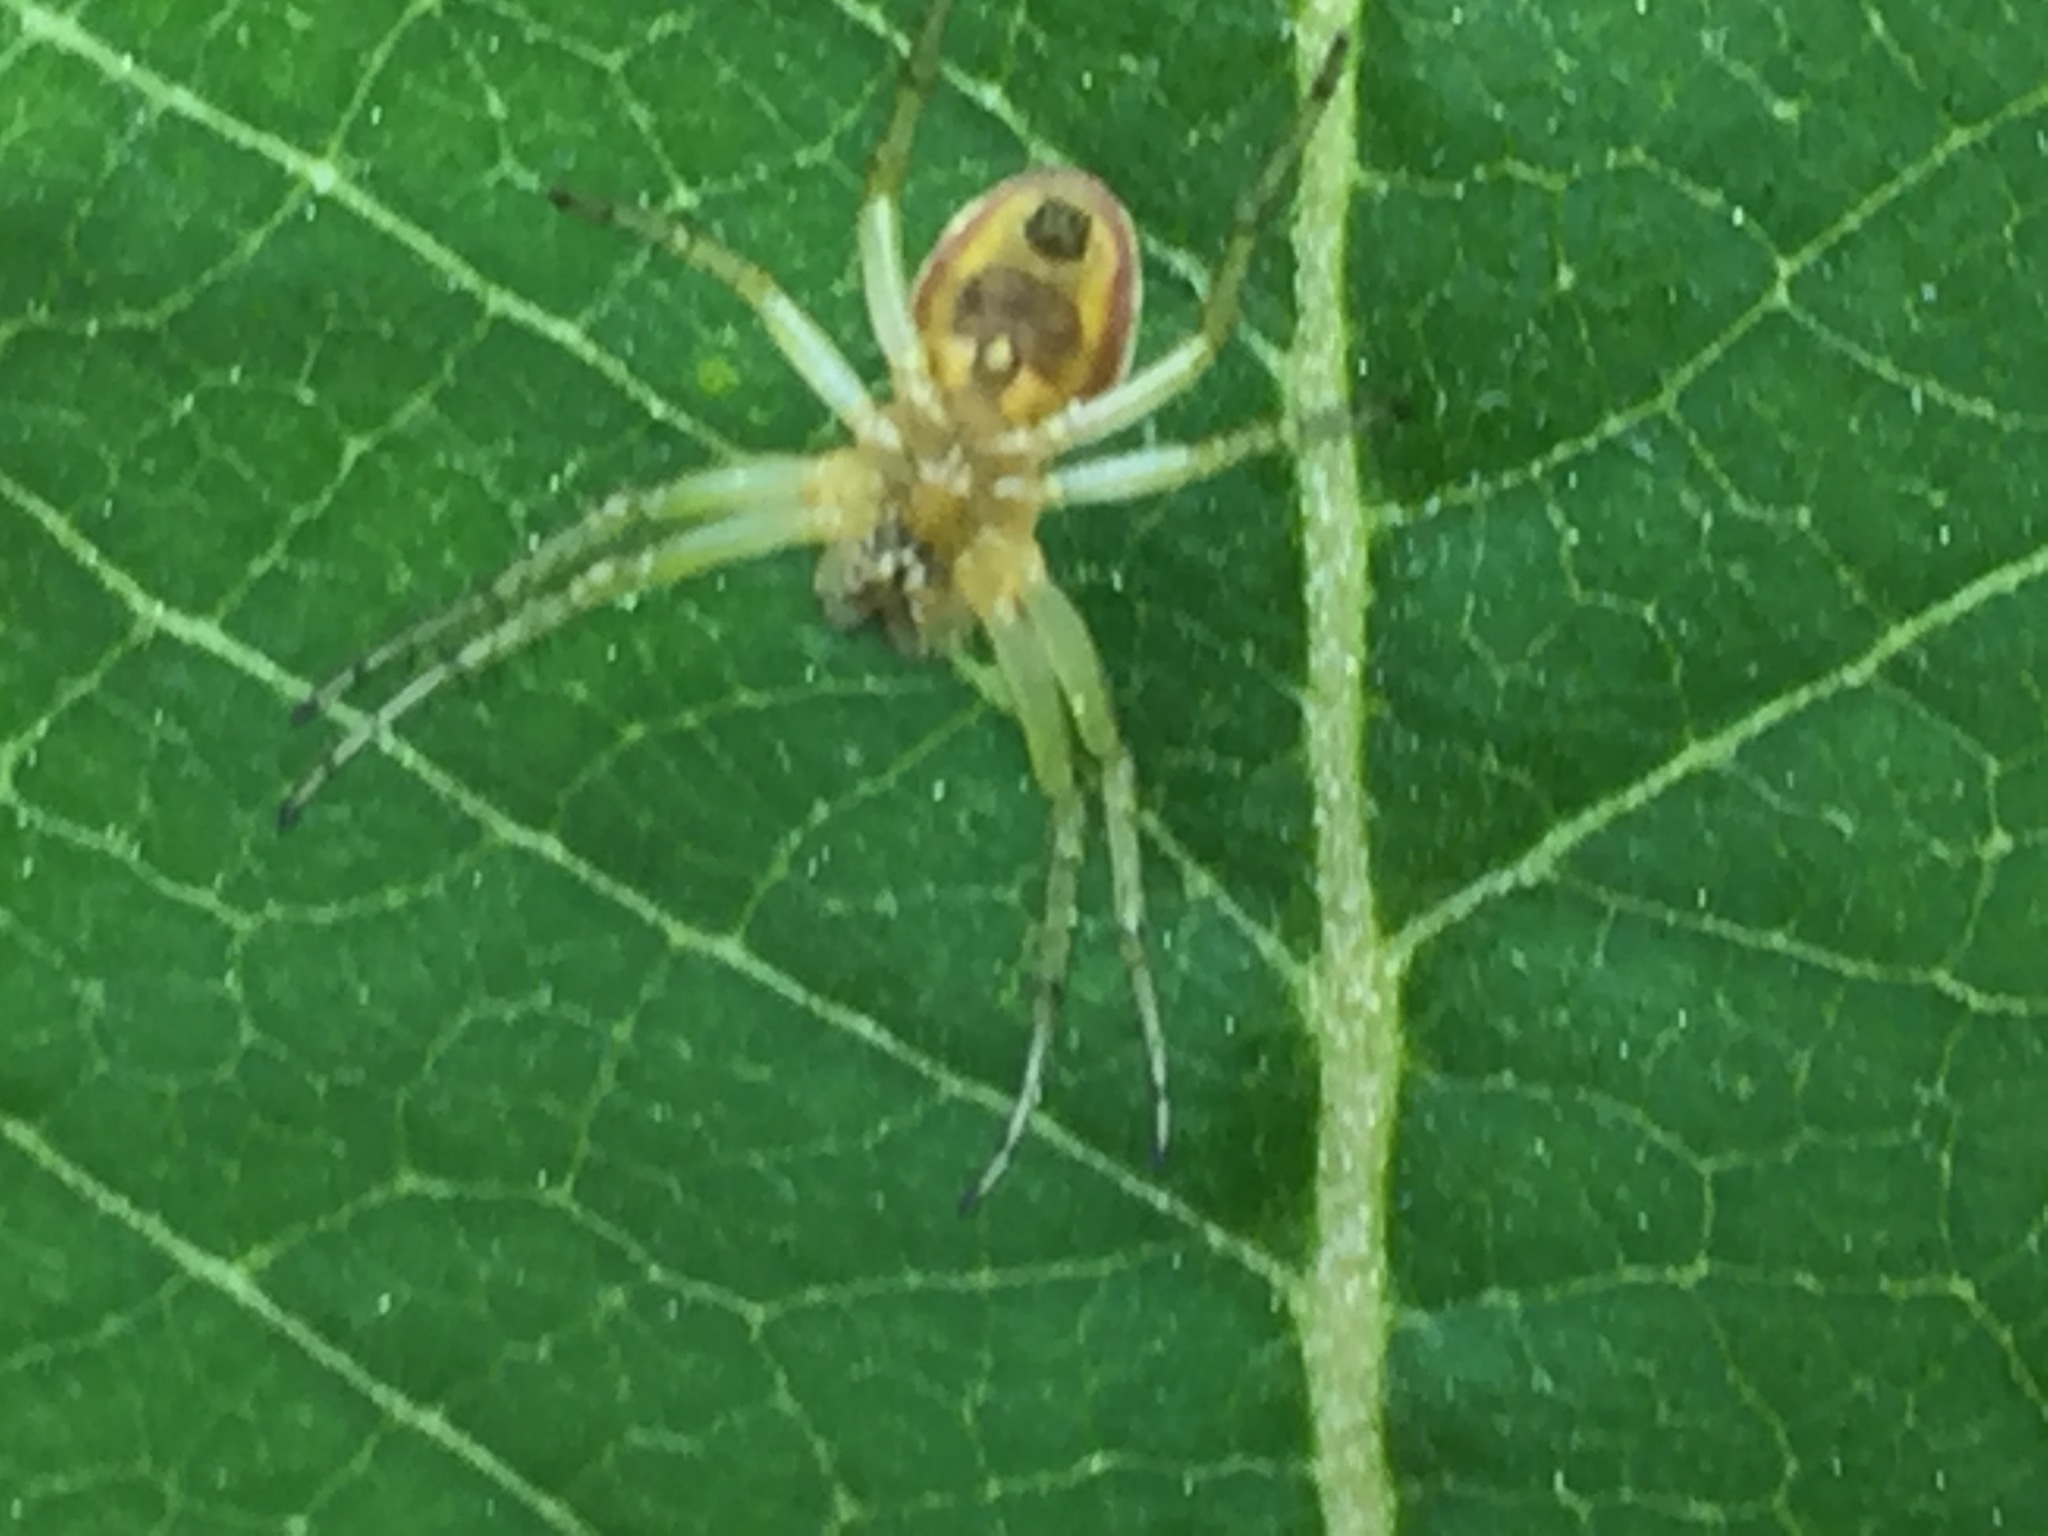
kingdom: Animalia
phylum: Arthropoda
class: Arachnida
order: Araneae
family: Araneidae
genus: Araniella
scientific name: Araniella displicata
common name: Sixspotted orb weaver
